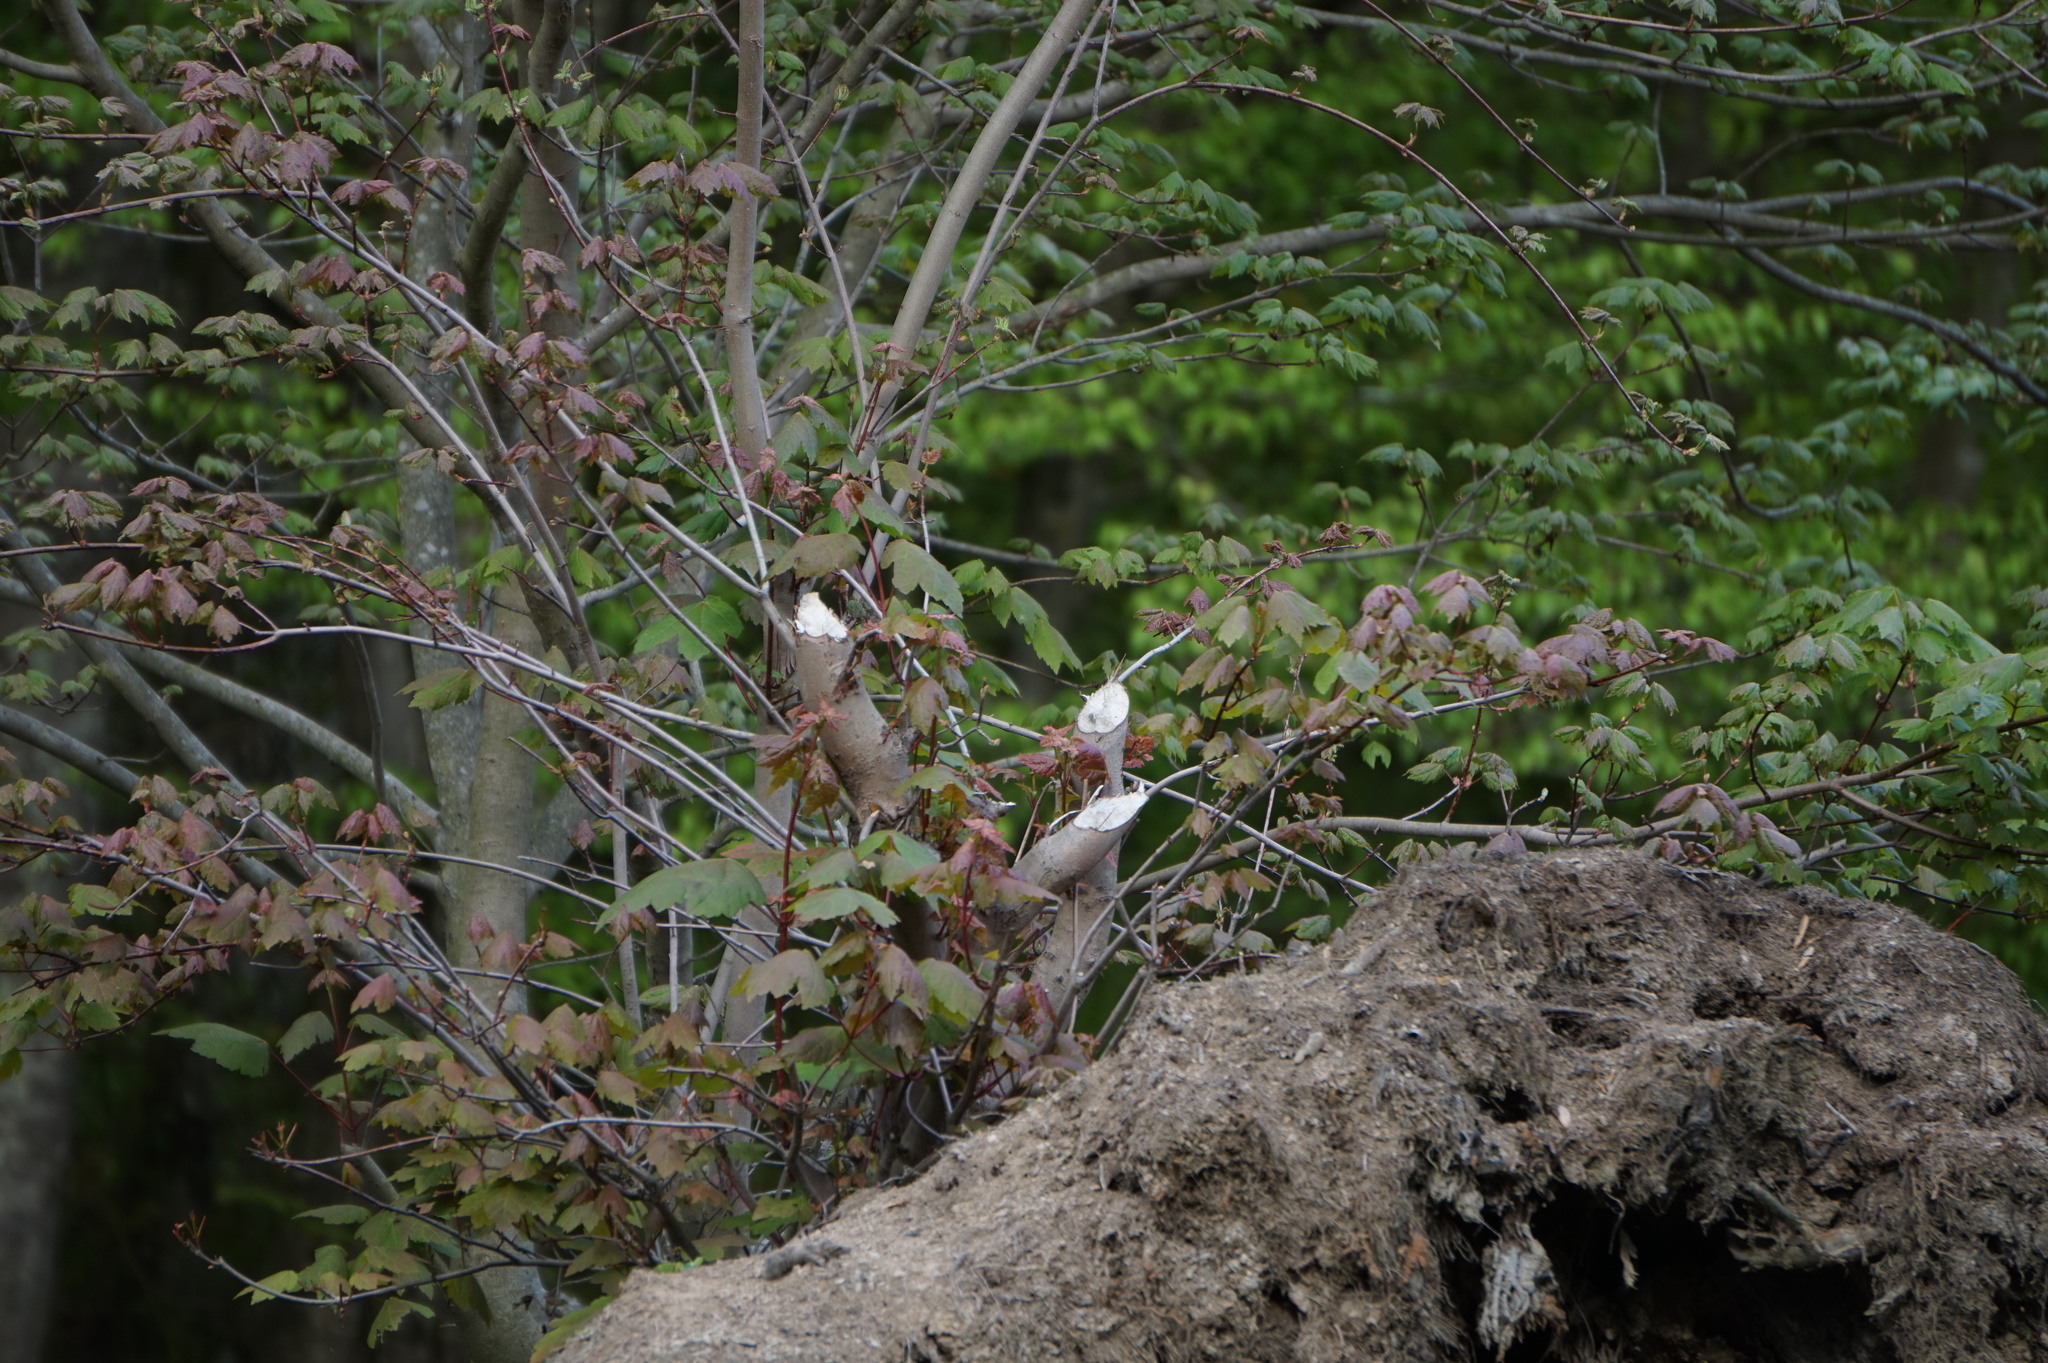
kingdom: Animalia
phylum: Chordata
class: Mammalia
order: Rodentia
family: Castoridae
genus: Castor
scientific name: Castor canadensis
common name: American beaver
